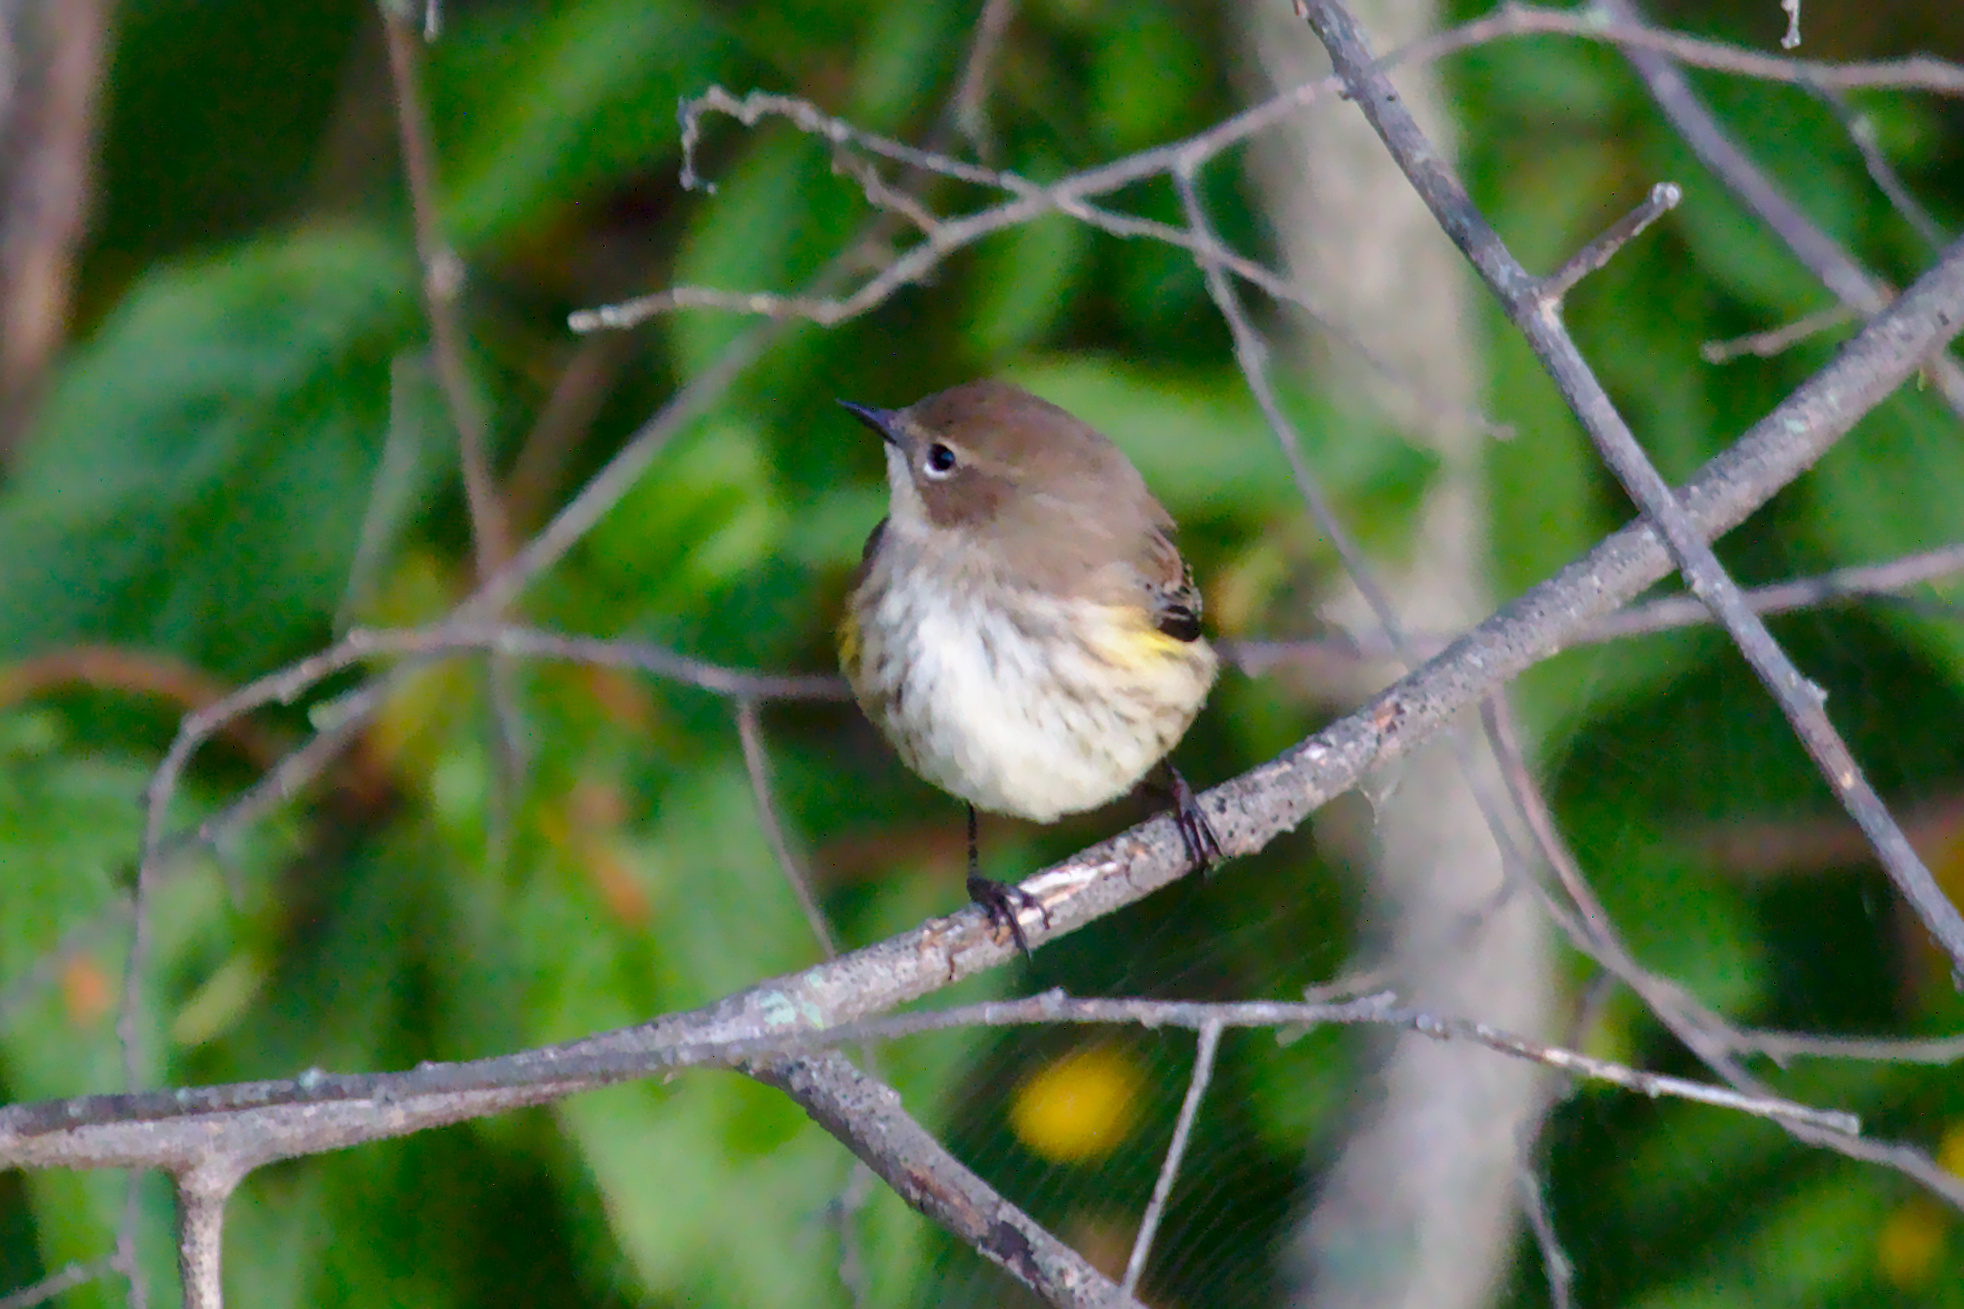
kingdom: Animalia
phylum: Chordata
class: Aves
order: Passeriformes
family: Parulidae
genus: Setophaga
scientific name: Setophaga coronata
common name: Myrtle warbler
